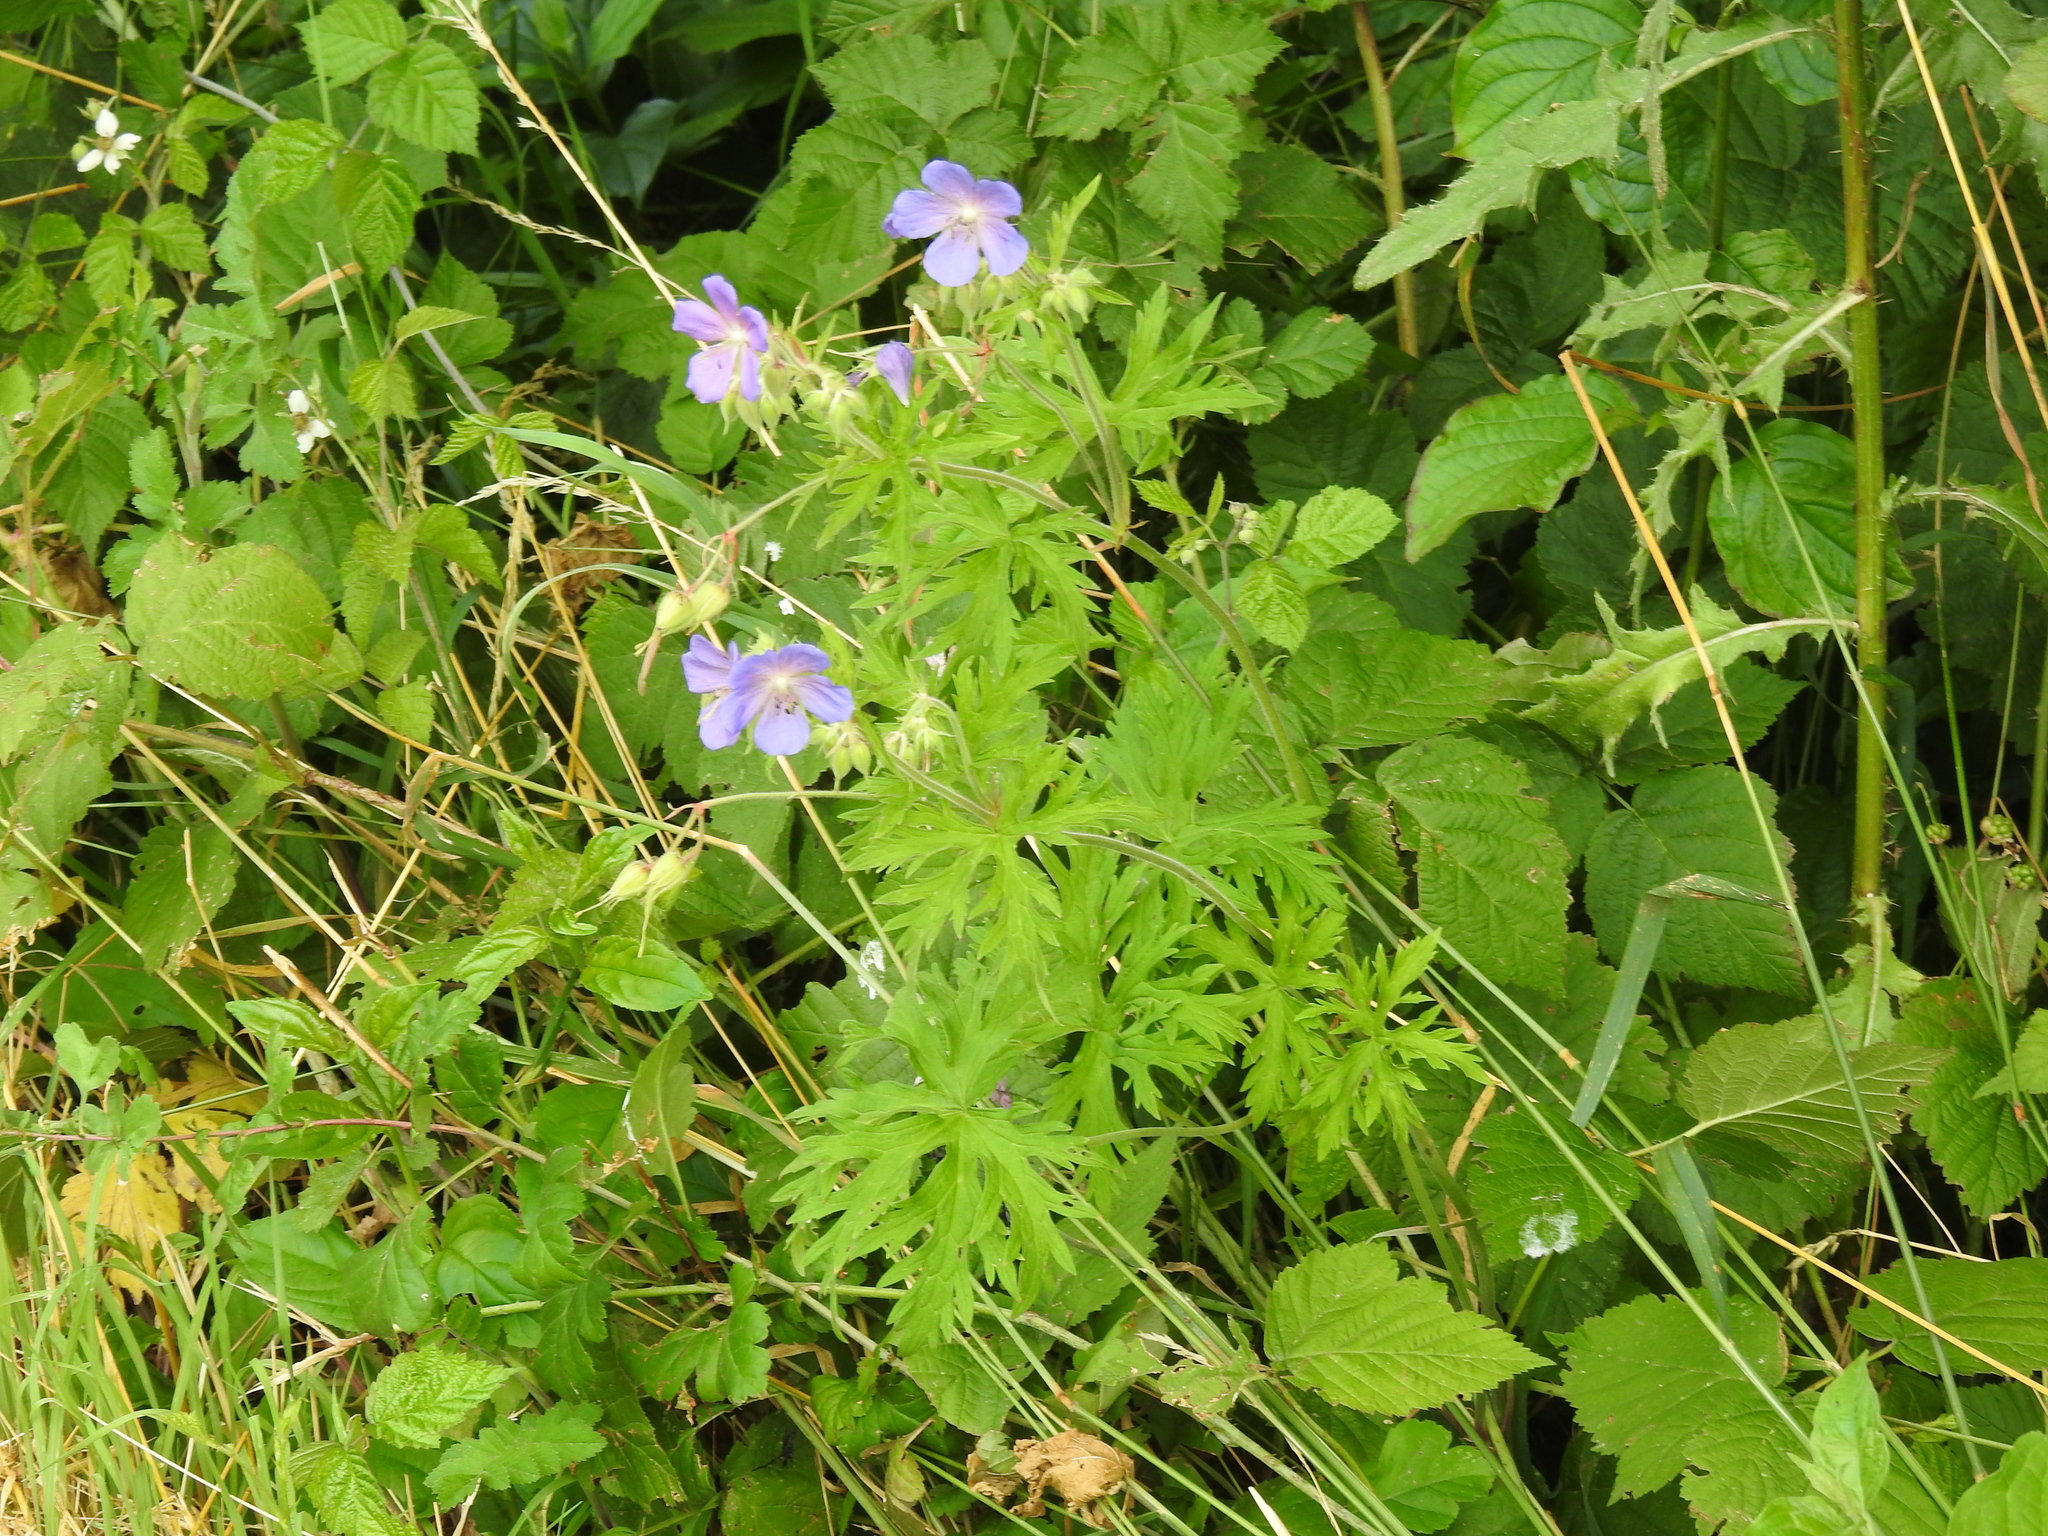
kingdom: Plantae
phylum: Tracheophyta
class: Magnoliopsida
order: Geraniales
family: Geraniaceae
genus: Geranium
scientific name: Geranium pratense
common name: Meadow crane's-bill
